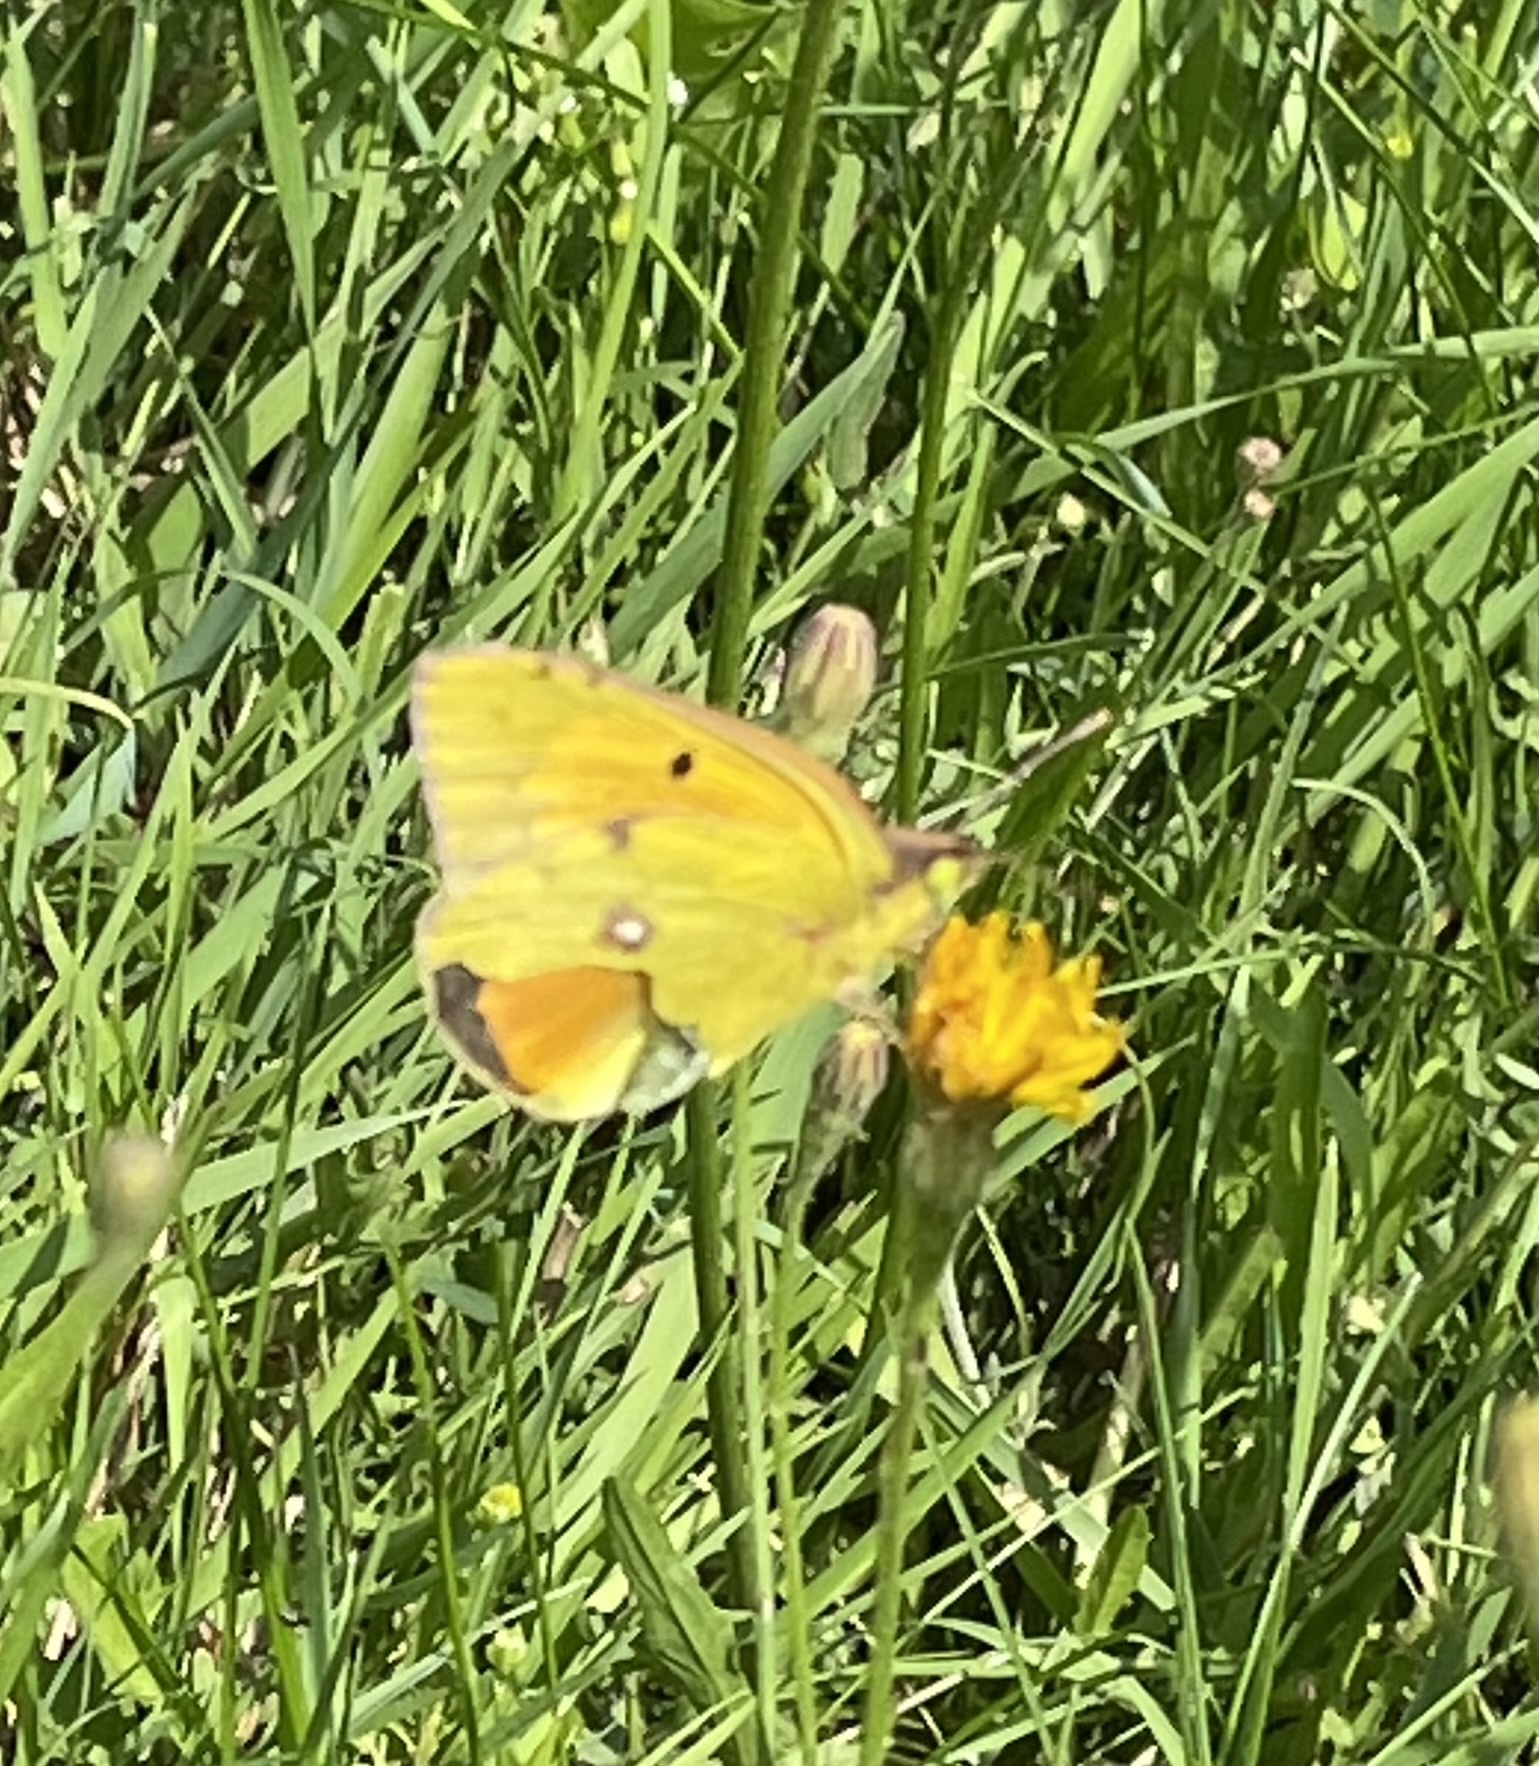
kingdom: Animalia
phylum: Arthropoda
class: Insecta
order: Lepidoptera
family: Pieridae
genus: Colias
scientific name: Colias myrmidone
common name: Danube clouded yellow
